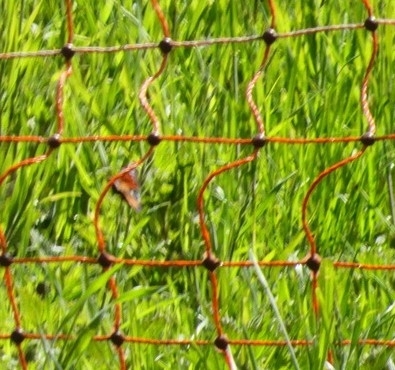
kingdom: Animalia
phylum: Arthropoda
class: Insecta
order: Lepidoptera
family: Nymphalidae
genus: Aglais
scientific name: Aglais io
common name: Peacock
